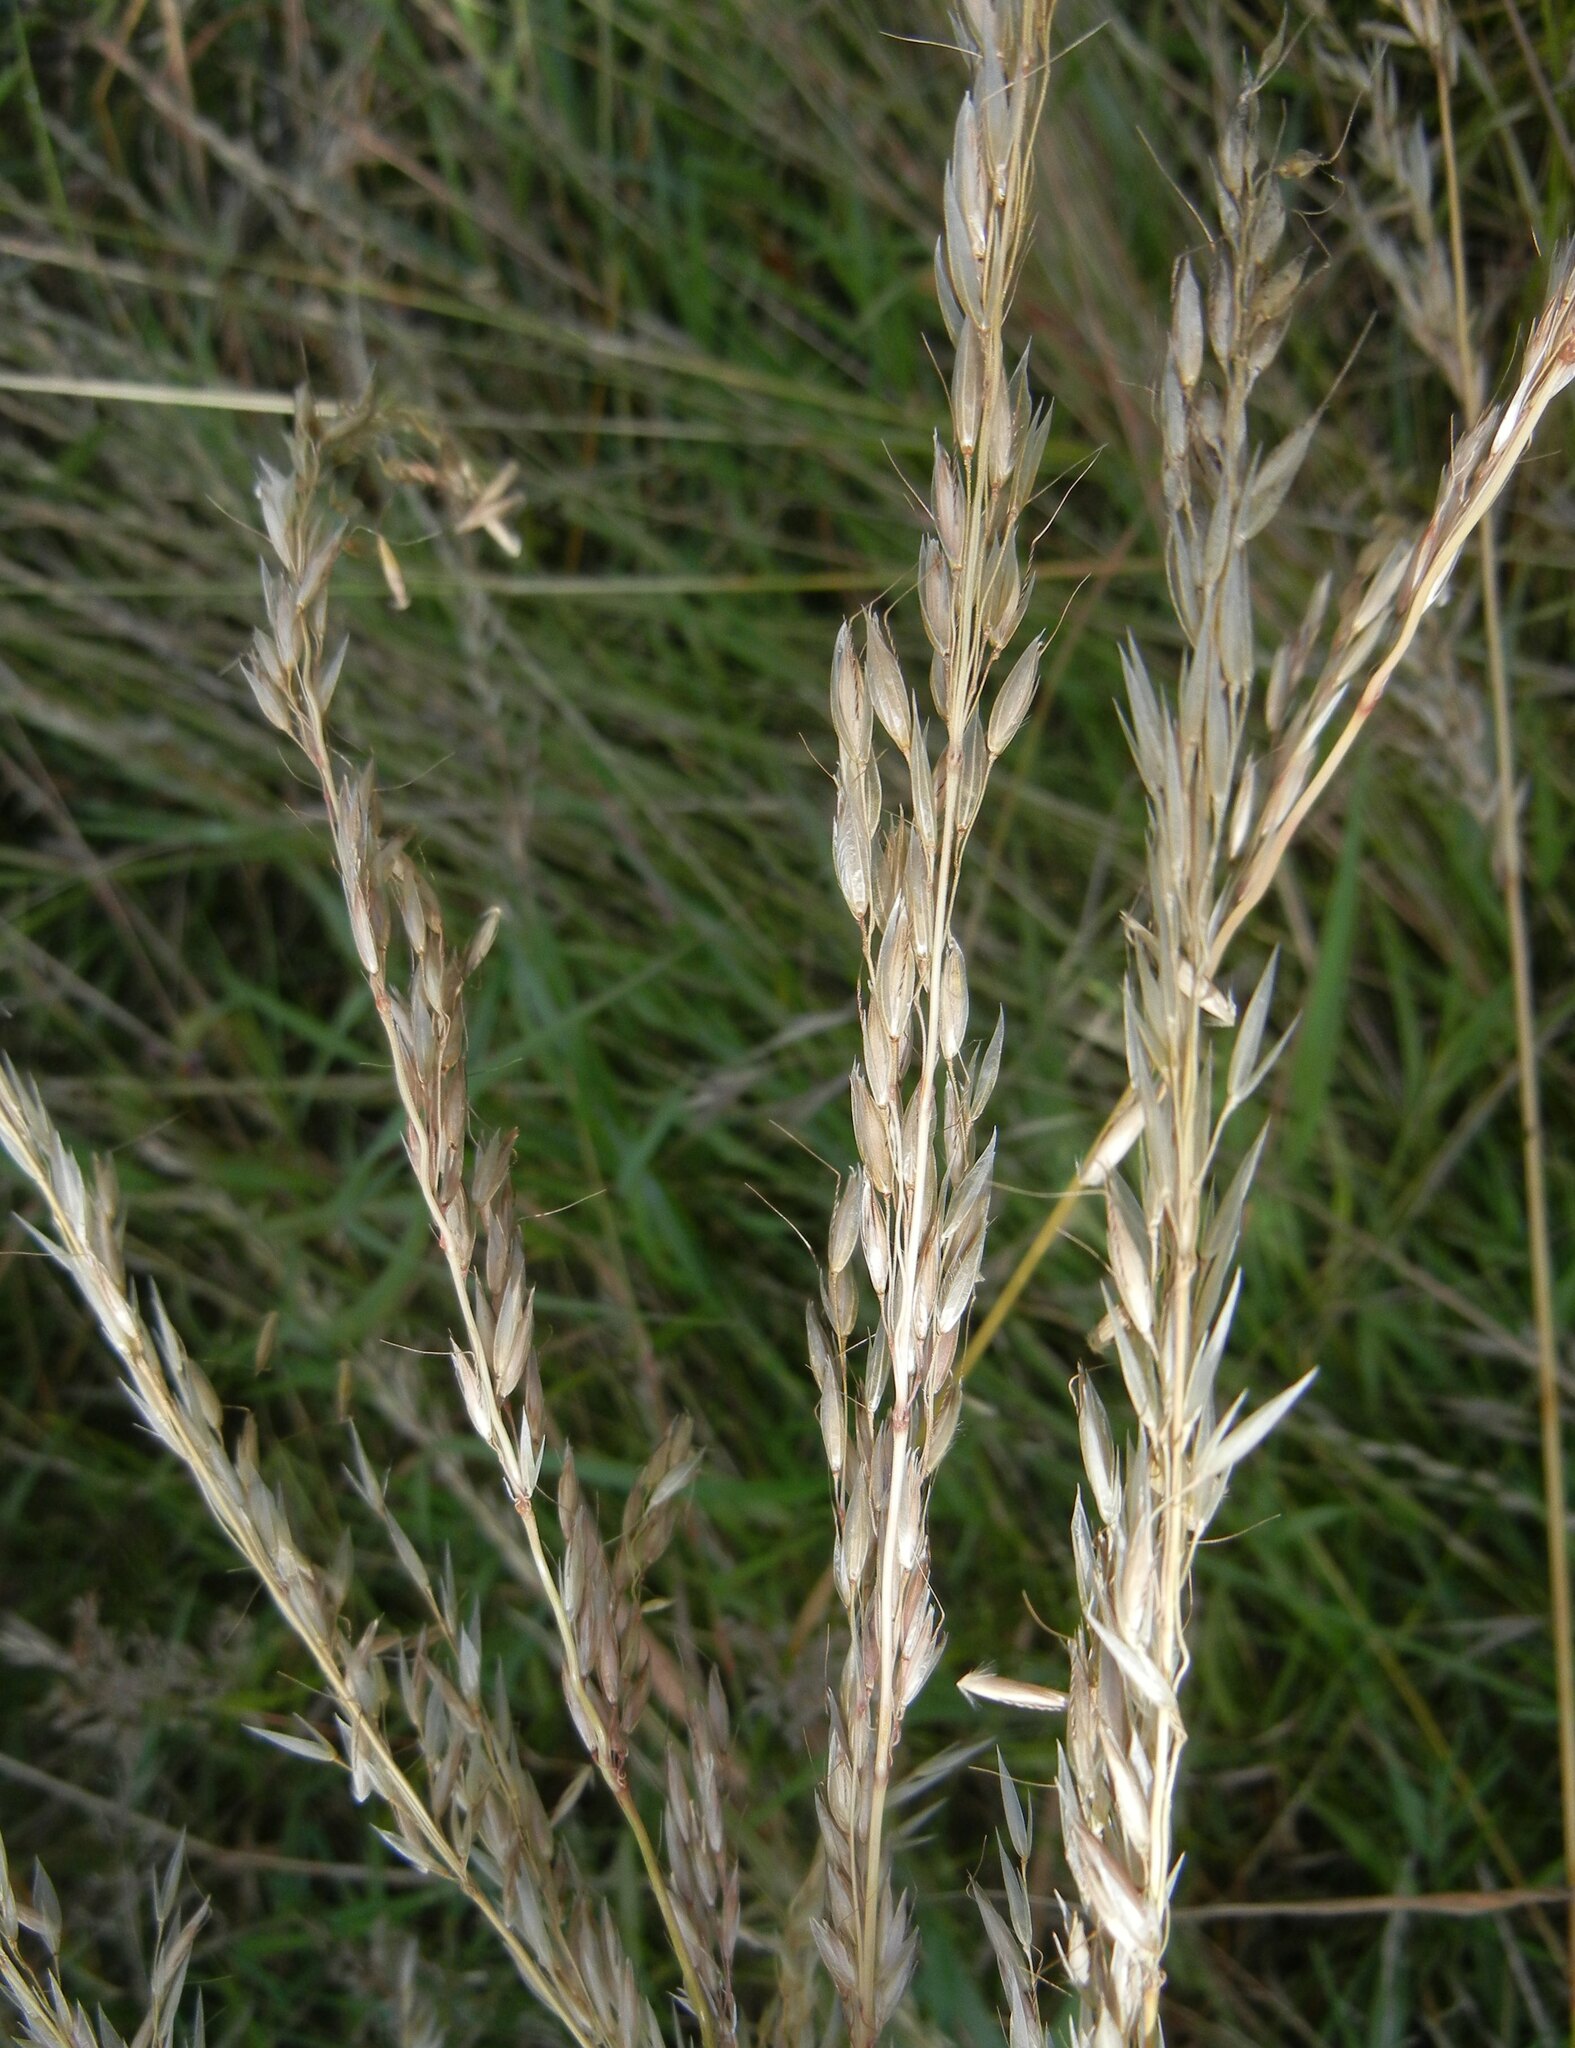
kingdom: Plantae
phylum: Tracheophyta
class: Liliopsida
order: Poales
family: Poaceae
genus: Arrhenatherum
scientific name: Arrhenatherum elatius
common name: Tall oatgrass
